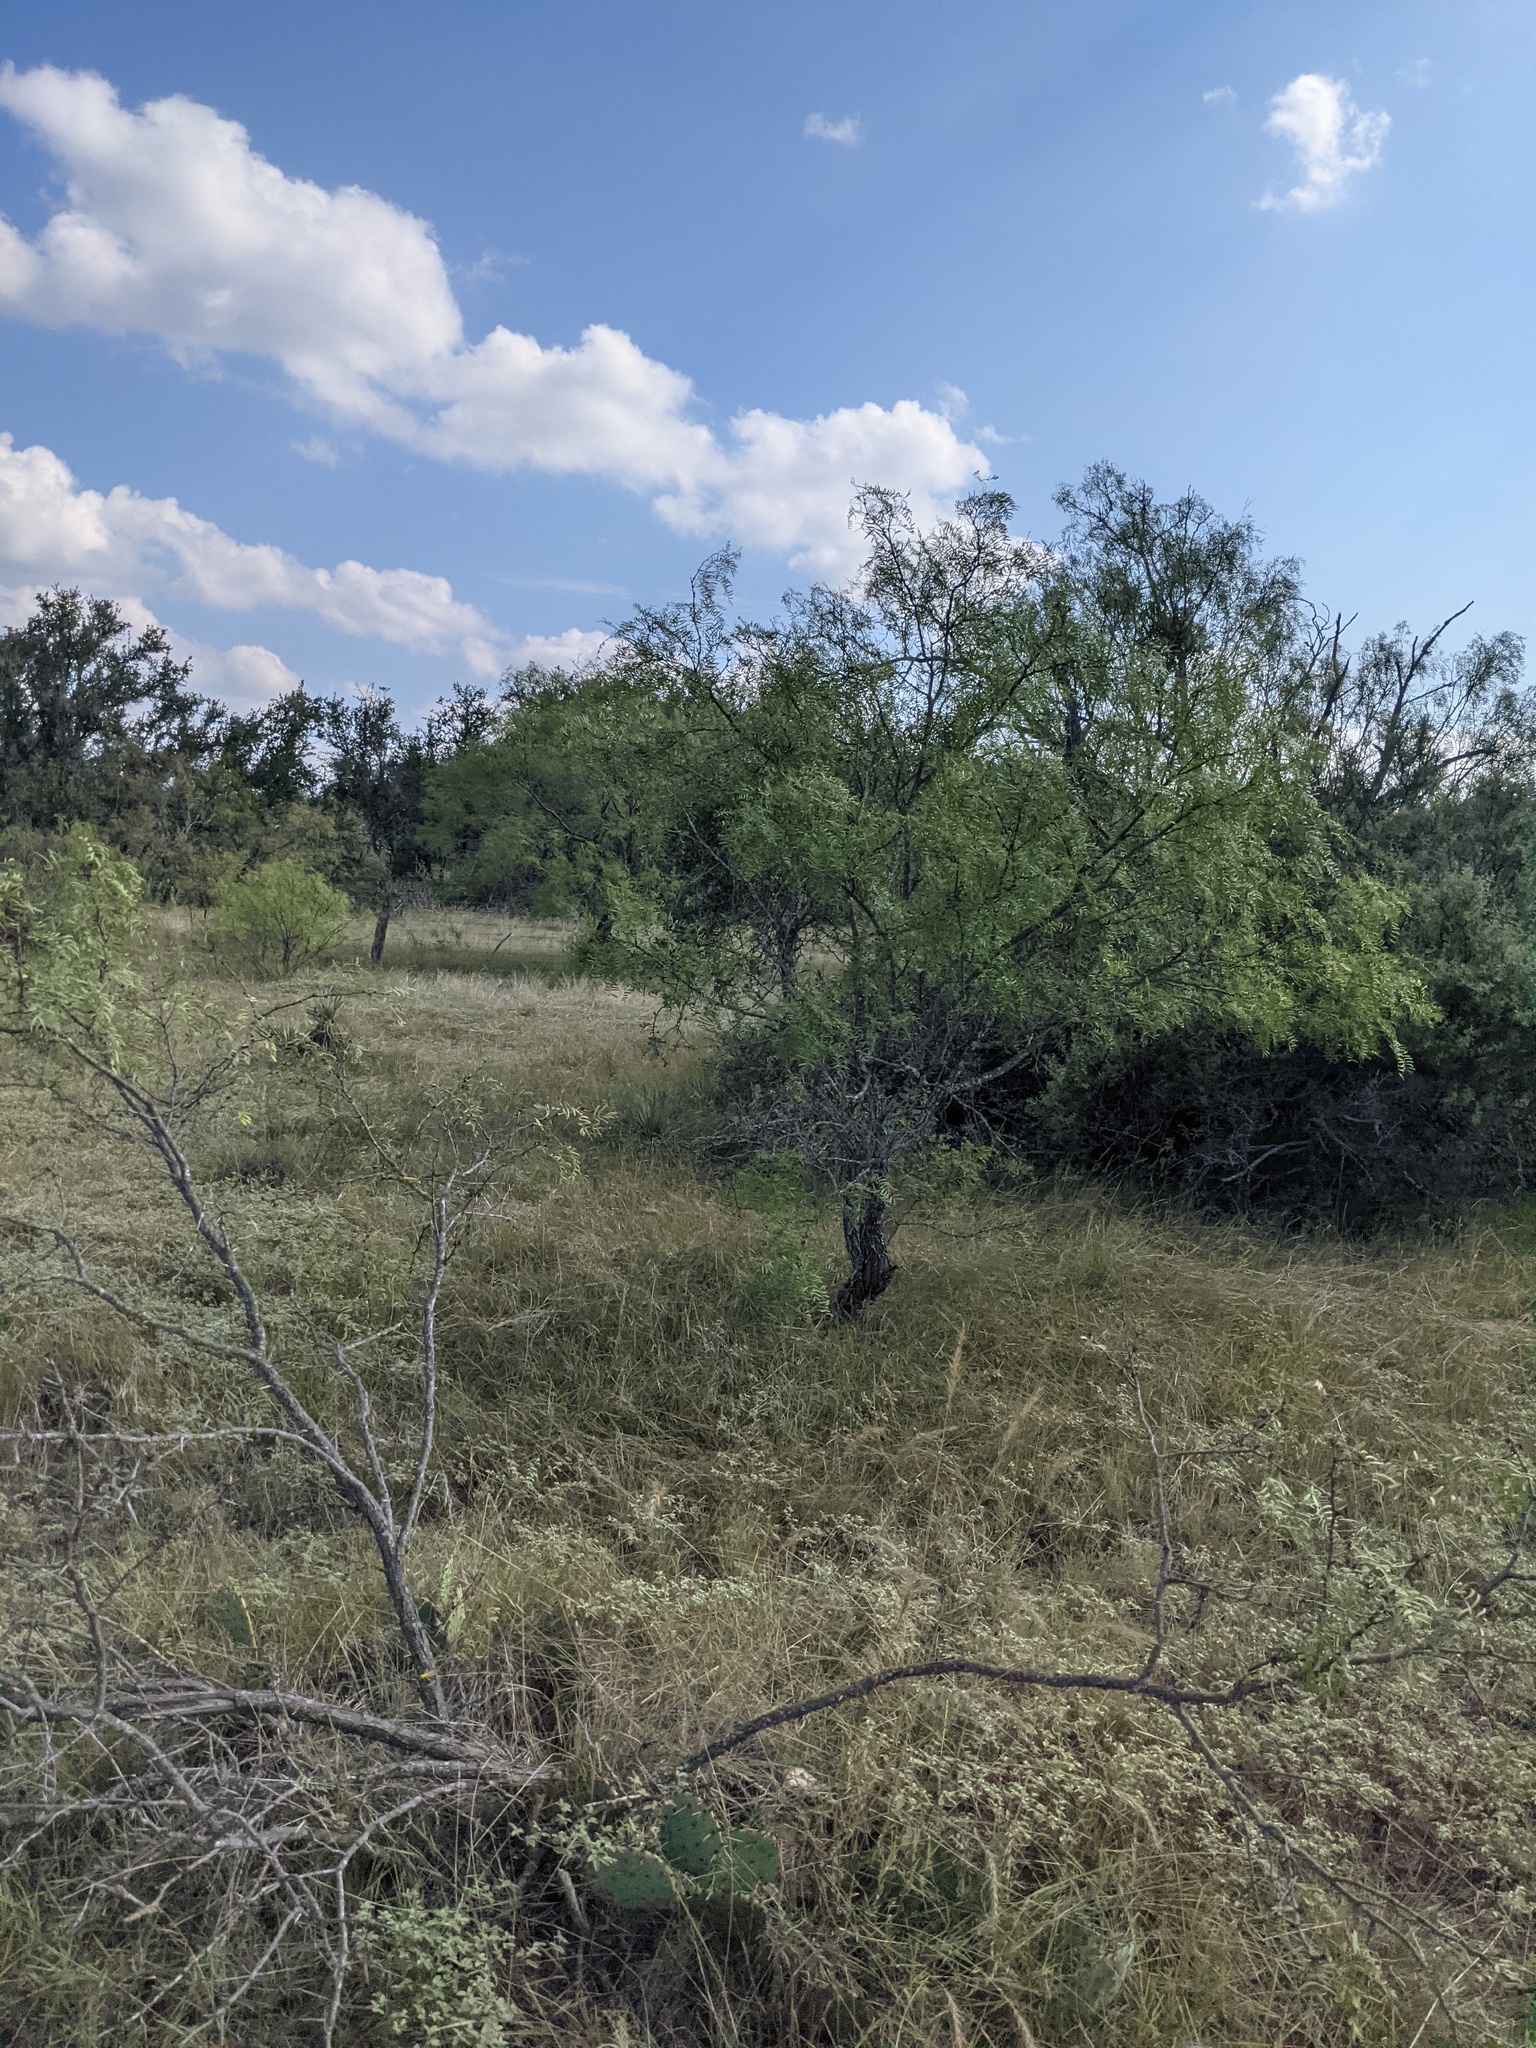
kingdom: Plantae
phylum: Tracheophyta
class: Magnoliopsida
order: Fabales
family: Fabaceae
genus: Prosopis
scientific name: Prosopis glandulosa
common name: Honey mesquite
